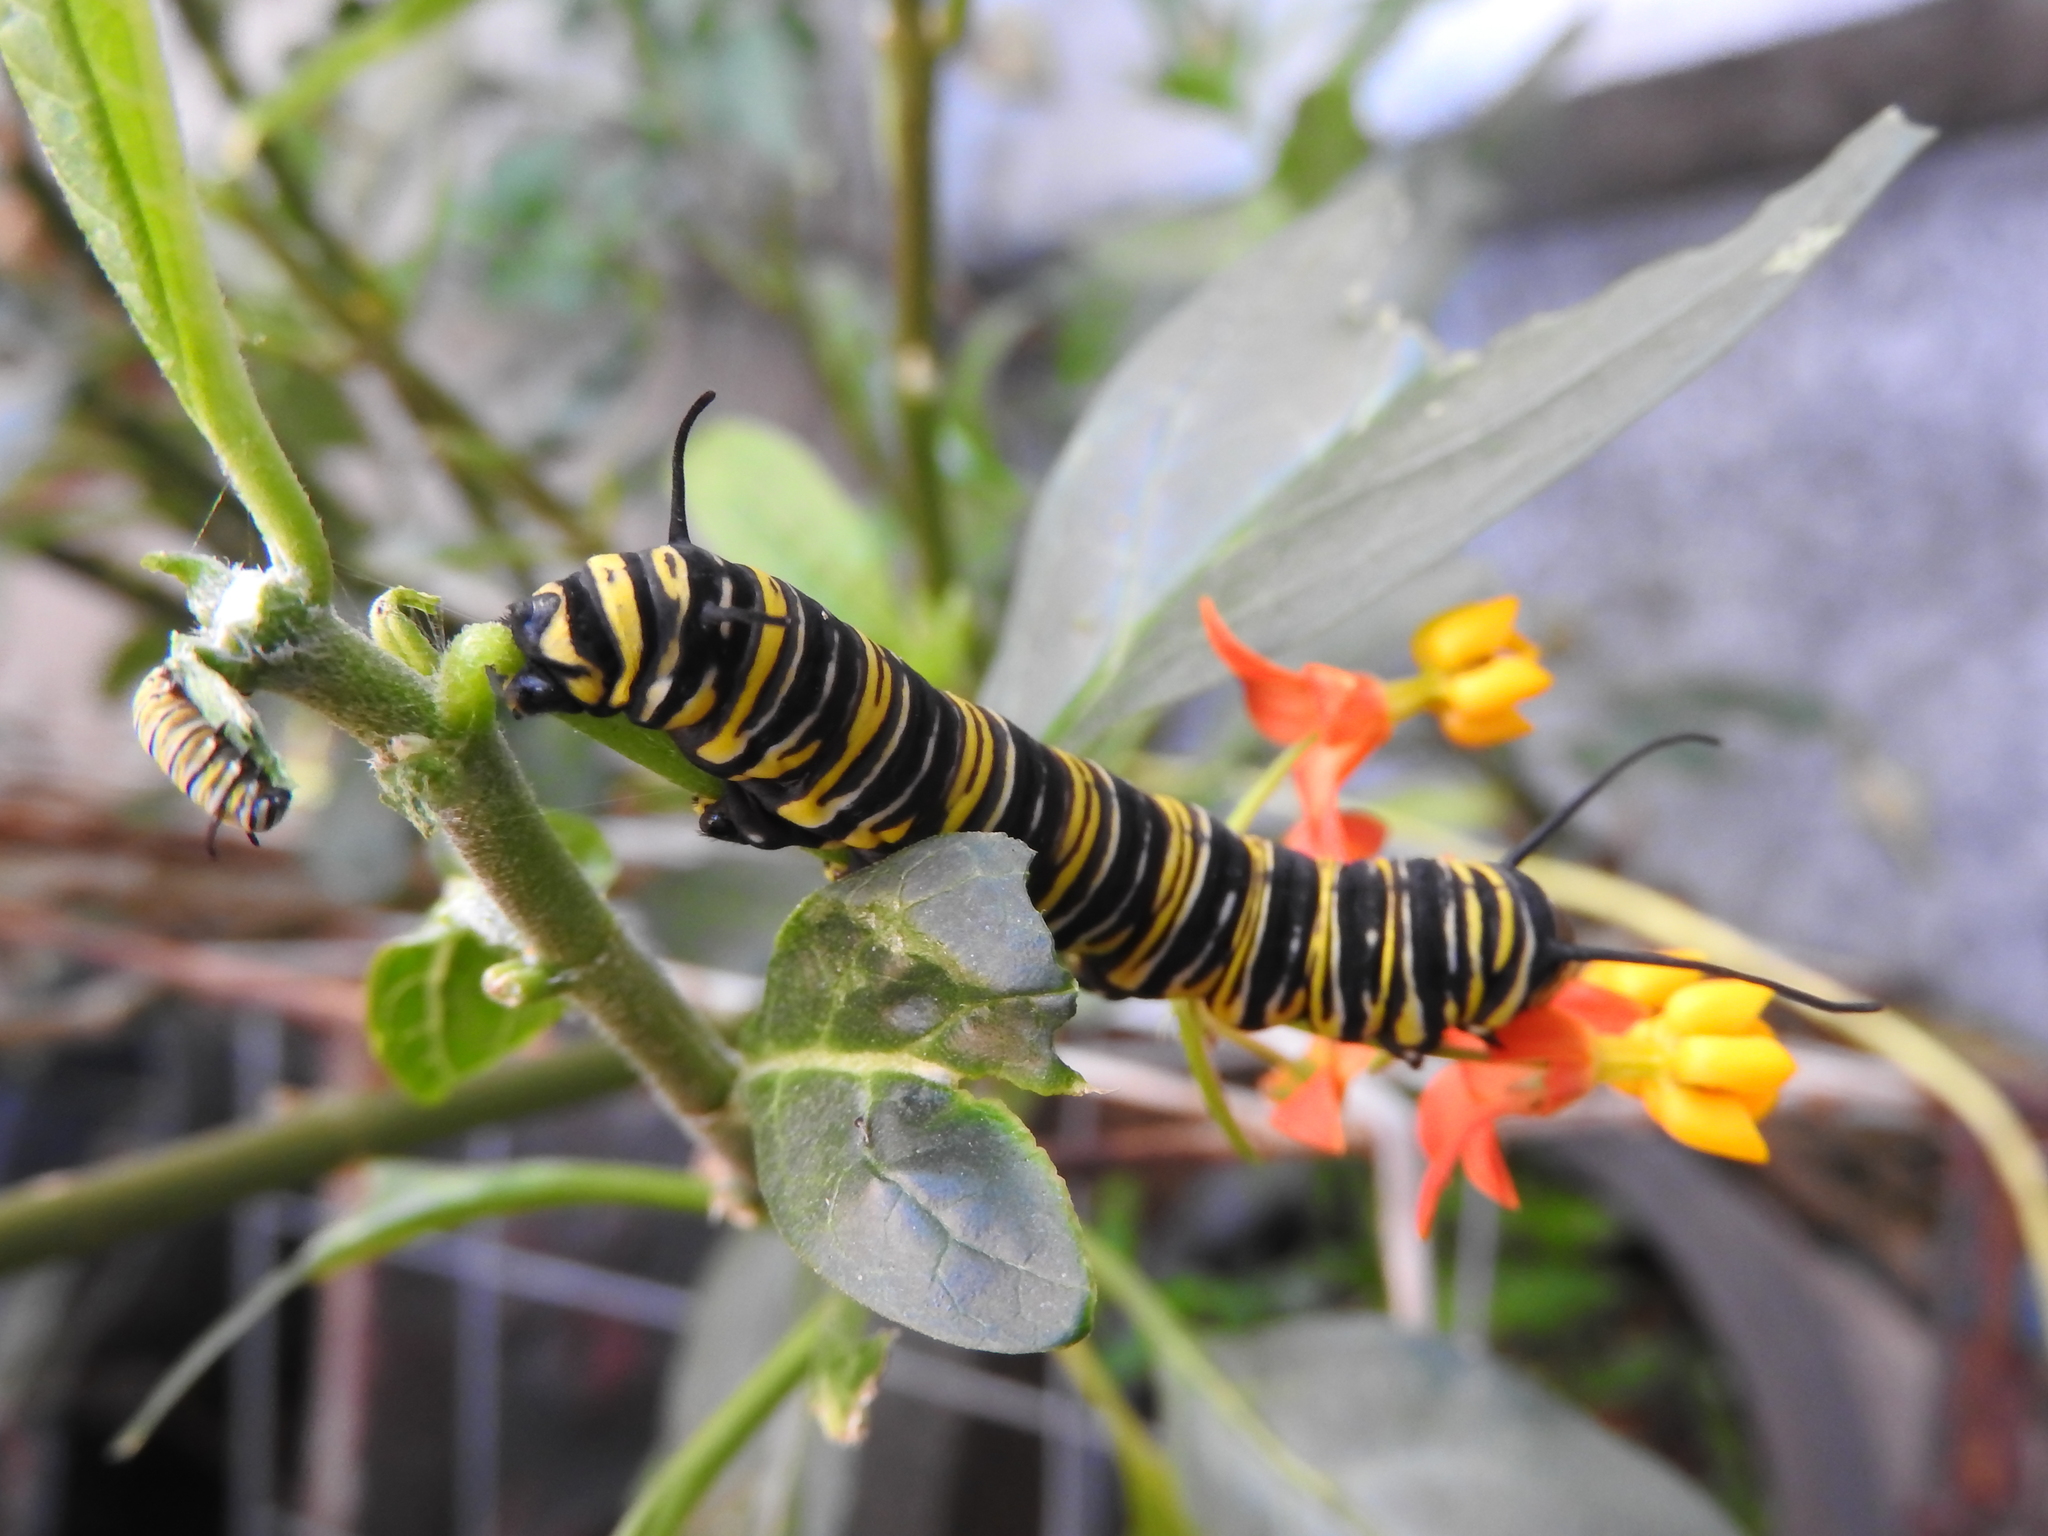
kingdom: Animalia
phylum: Arthropoda
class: Insecta
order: Lepidoptera
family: Nymphalidae
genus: Danaus
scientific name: Danaus plexippus
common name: Monarch
